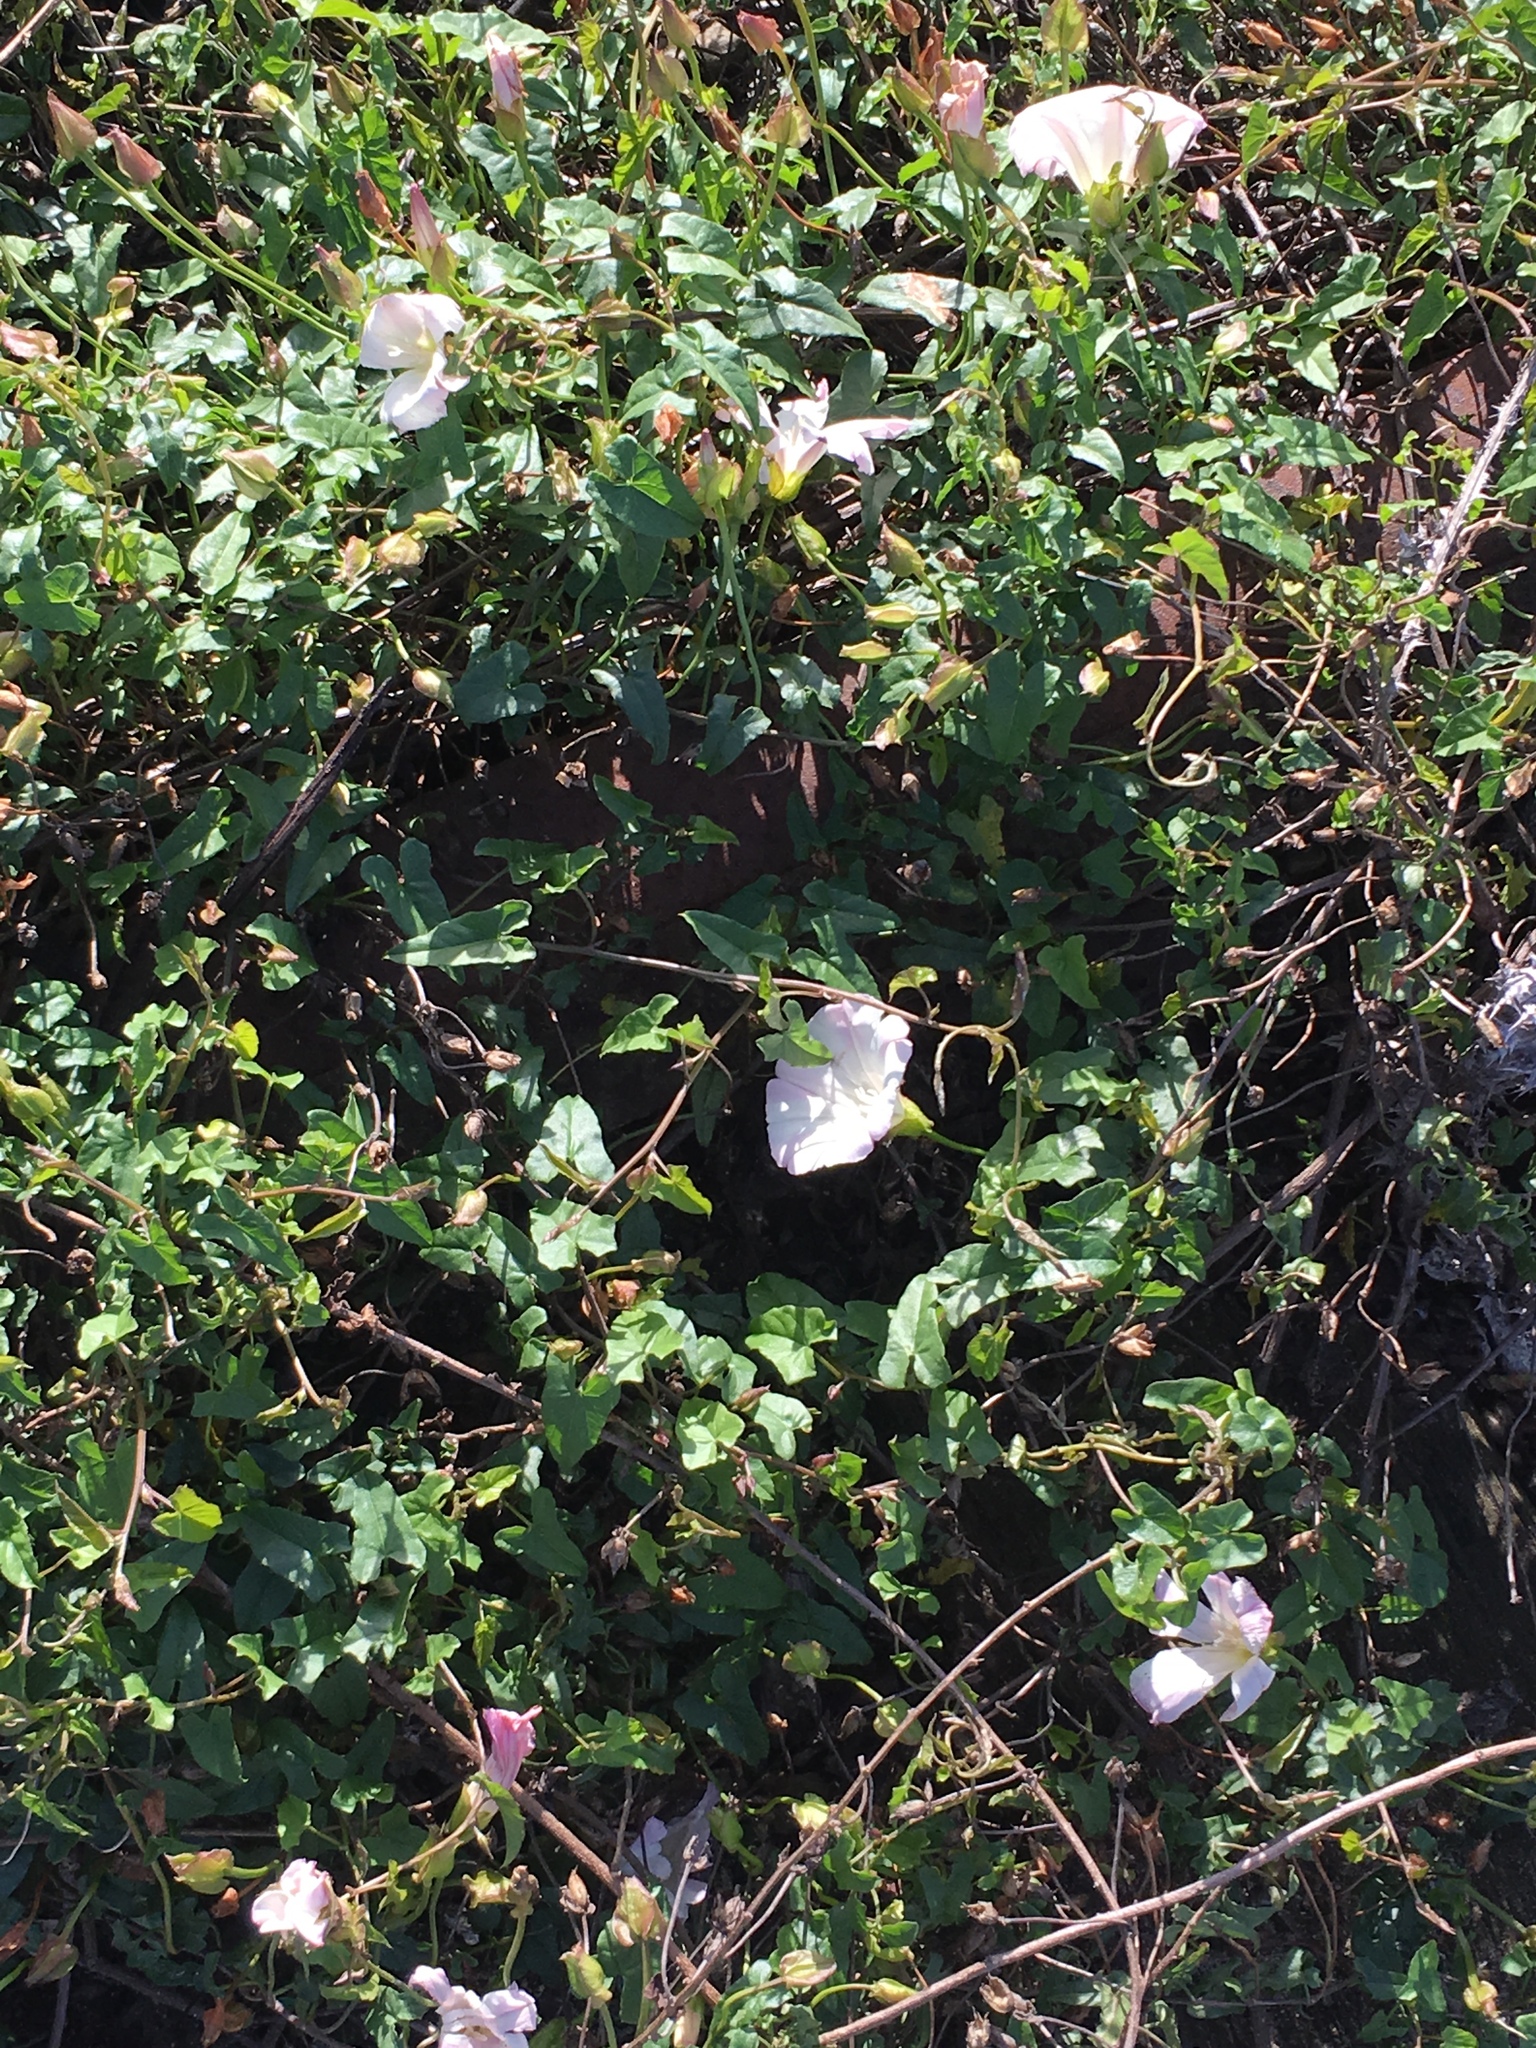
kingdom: Plantae
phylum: Tracheophyta
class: Magnoliopsida
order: Solanales
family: Convolvulaceae
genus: Calystegia
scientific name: Calystegia macrostegia
